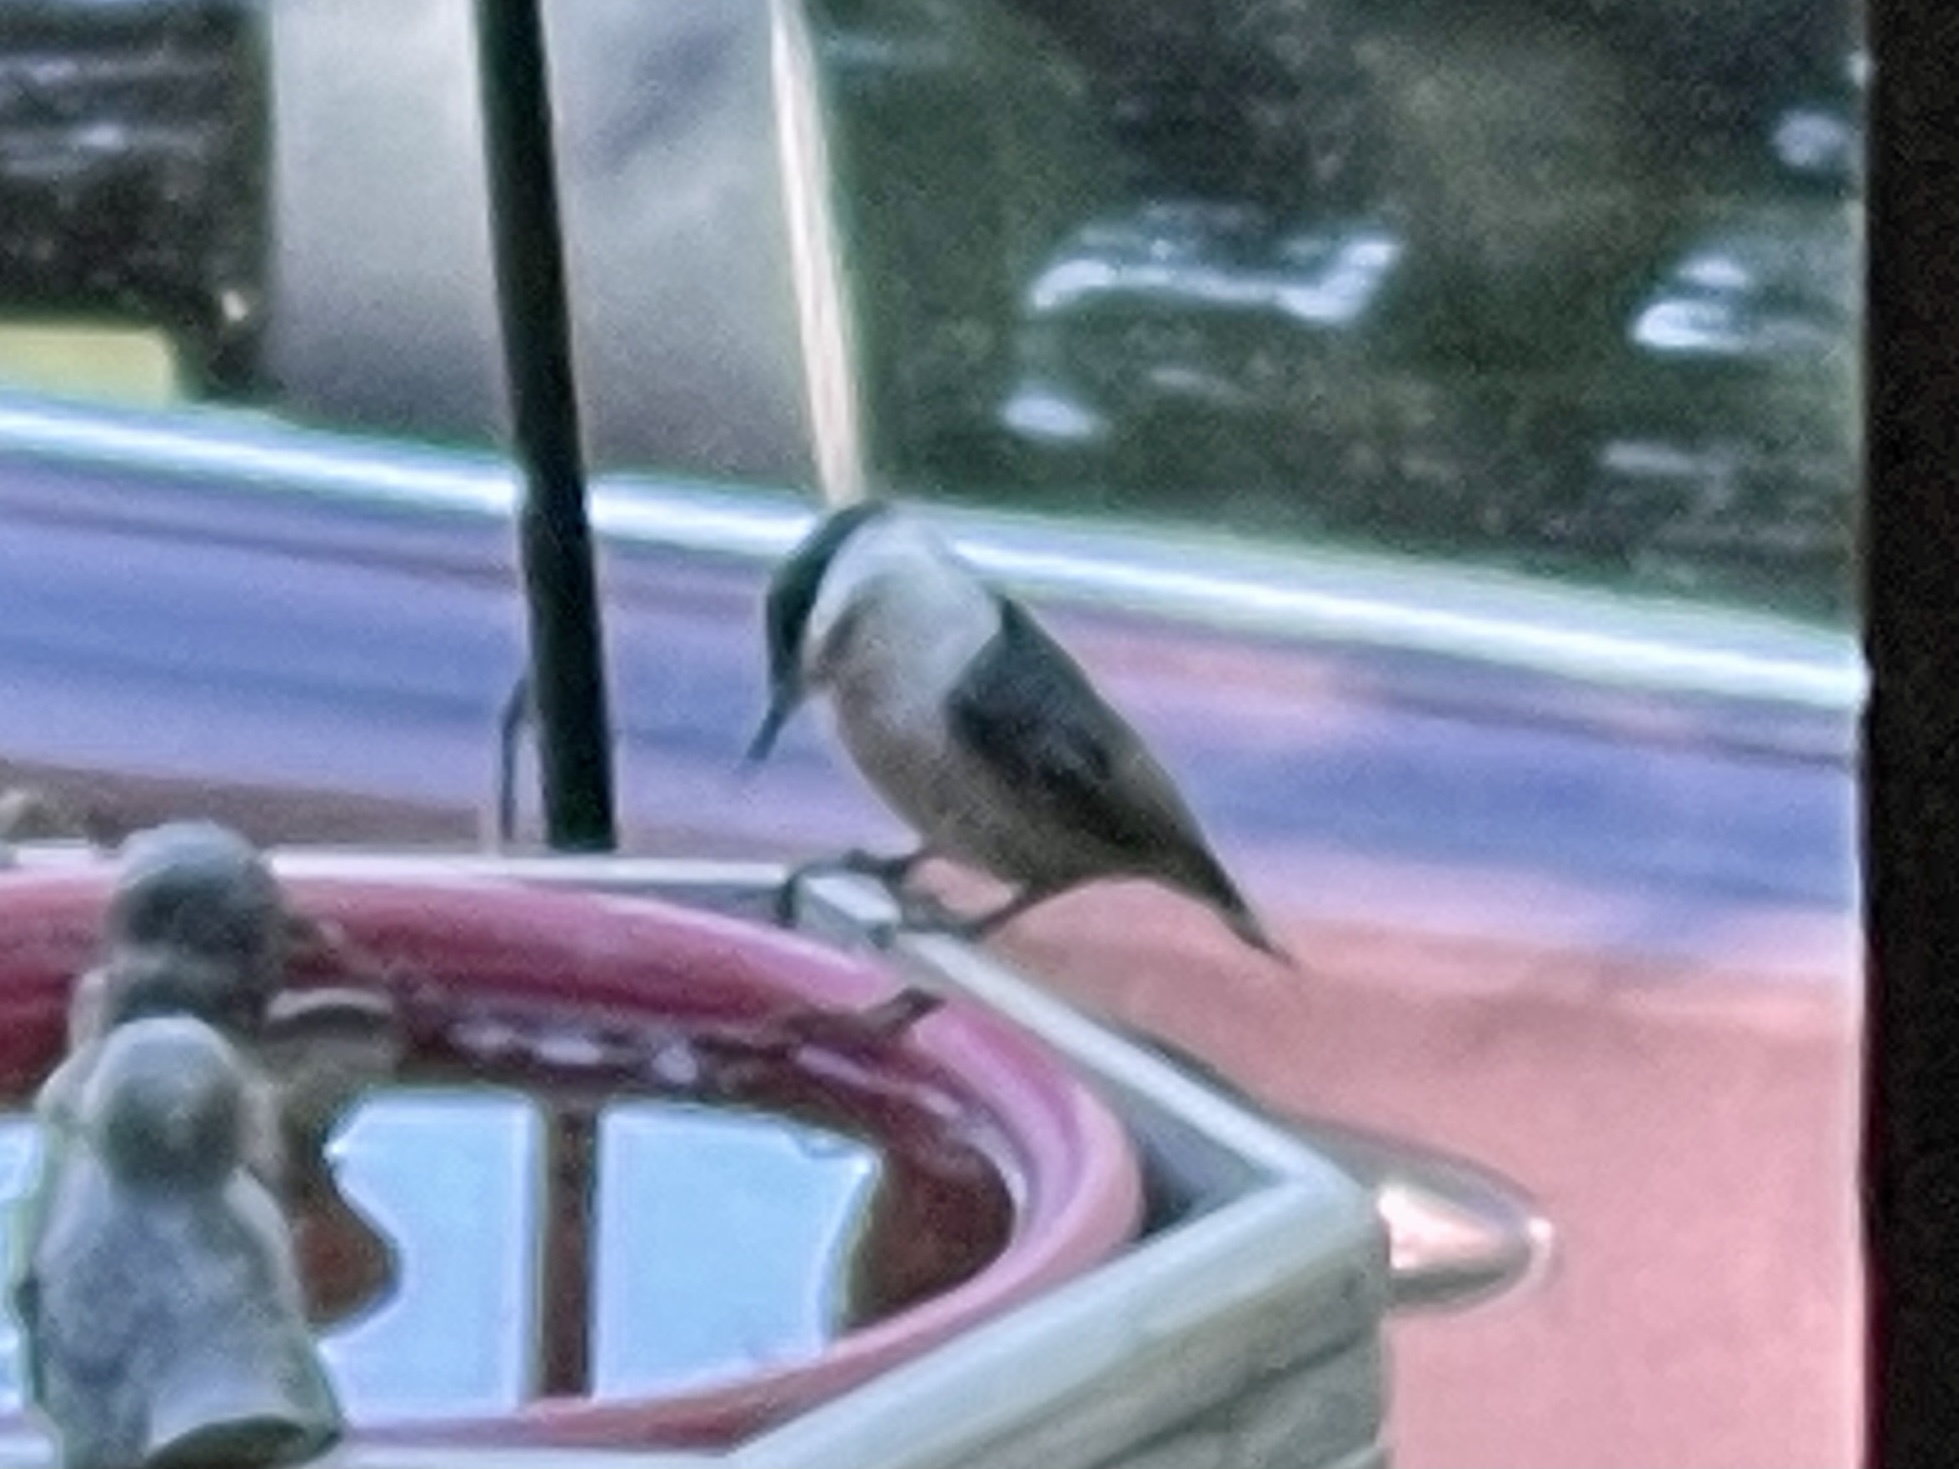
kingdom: Animalia
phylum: Chordata
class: Aves
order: Passeriformes
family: Sittidae
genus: Sitta
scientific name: Sitta carolinensis
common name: White-breasted nuthatch
